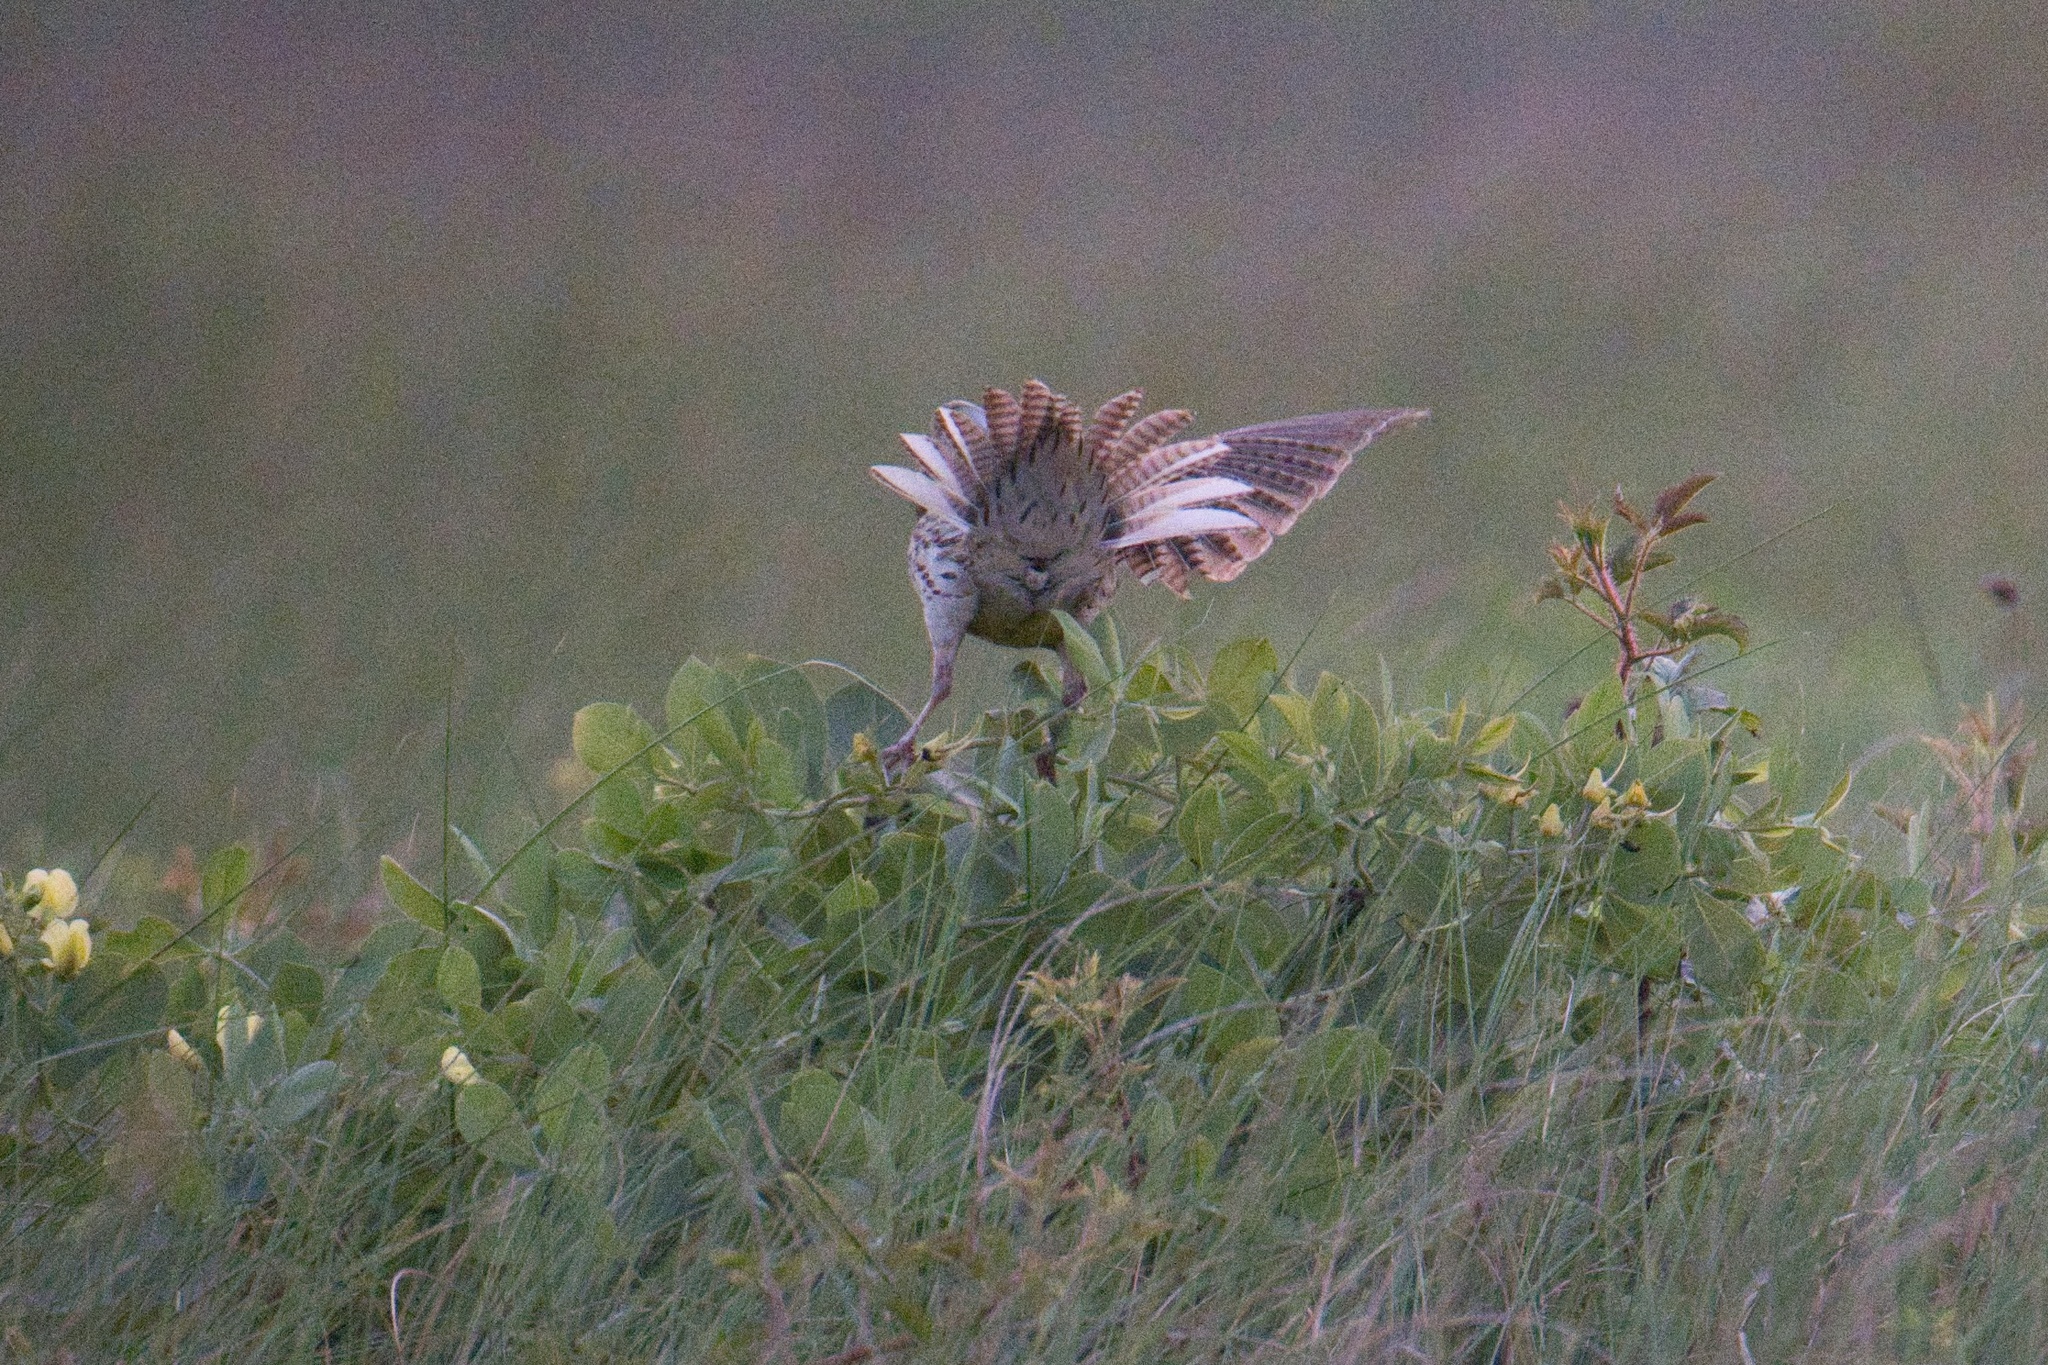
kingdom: Animalia
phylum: Chordata
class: Aves
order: Passeriformes
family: Icteridae
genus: Sturnella
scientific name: Sturnella neglecta
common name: Western meadowlark
